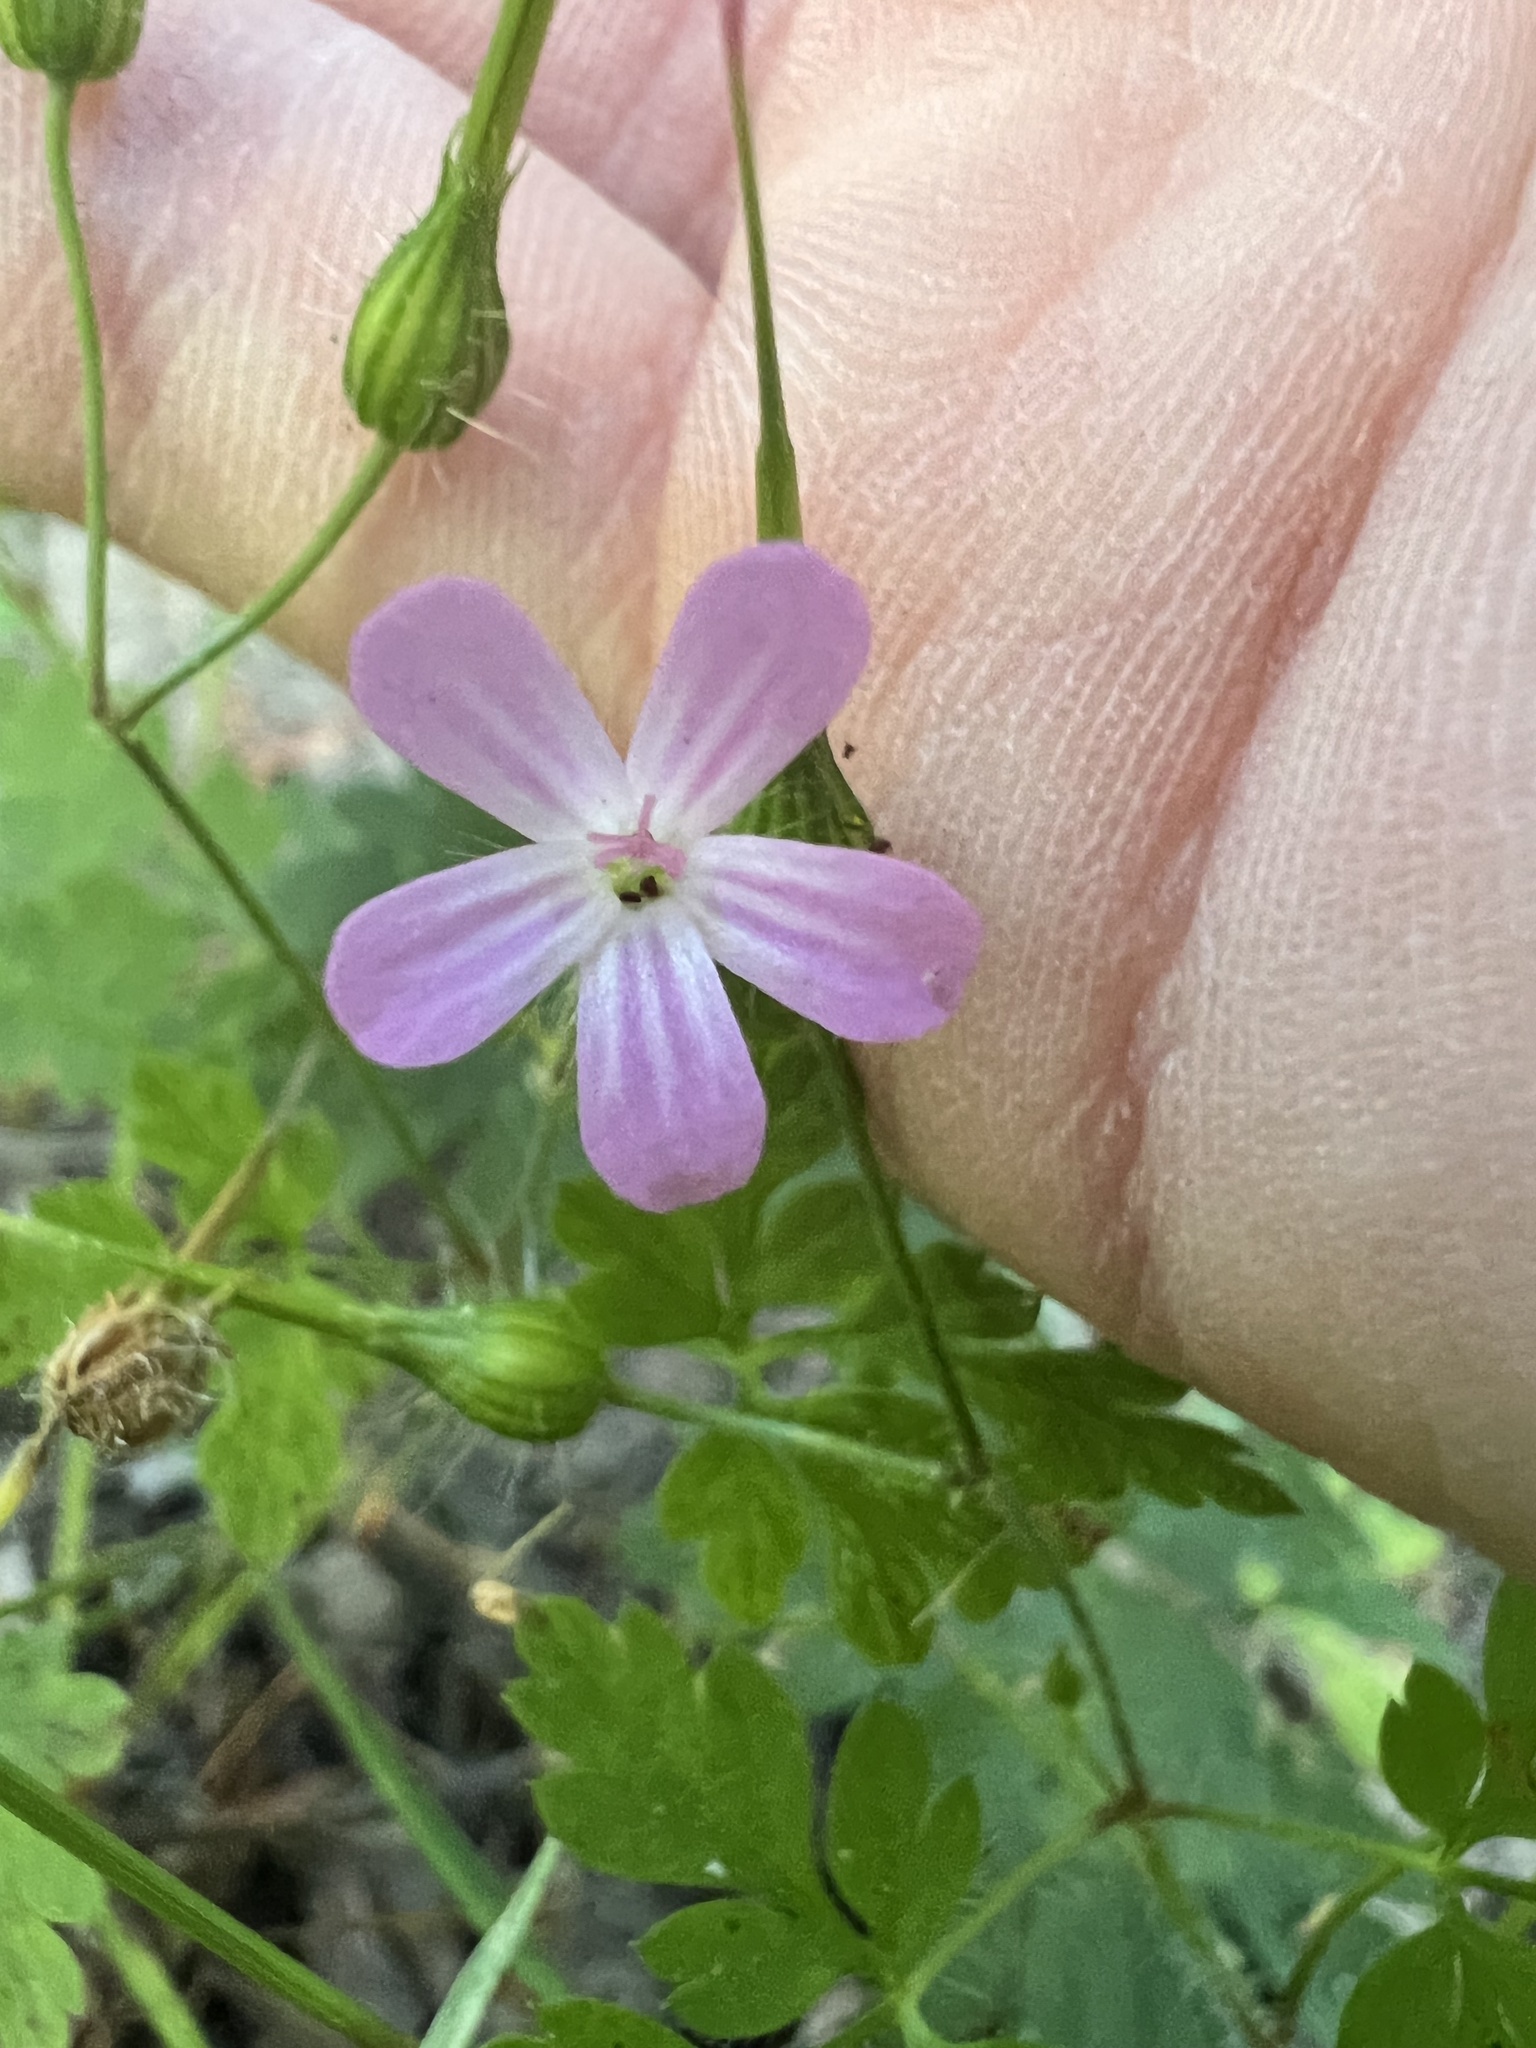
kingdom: Plantae
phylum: Tracheophyta
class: Magnoliopsida
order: Geraniales
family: Geraniaceae
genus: Geranium
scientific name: Geranium robertianum
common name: Herb-robert
